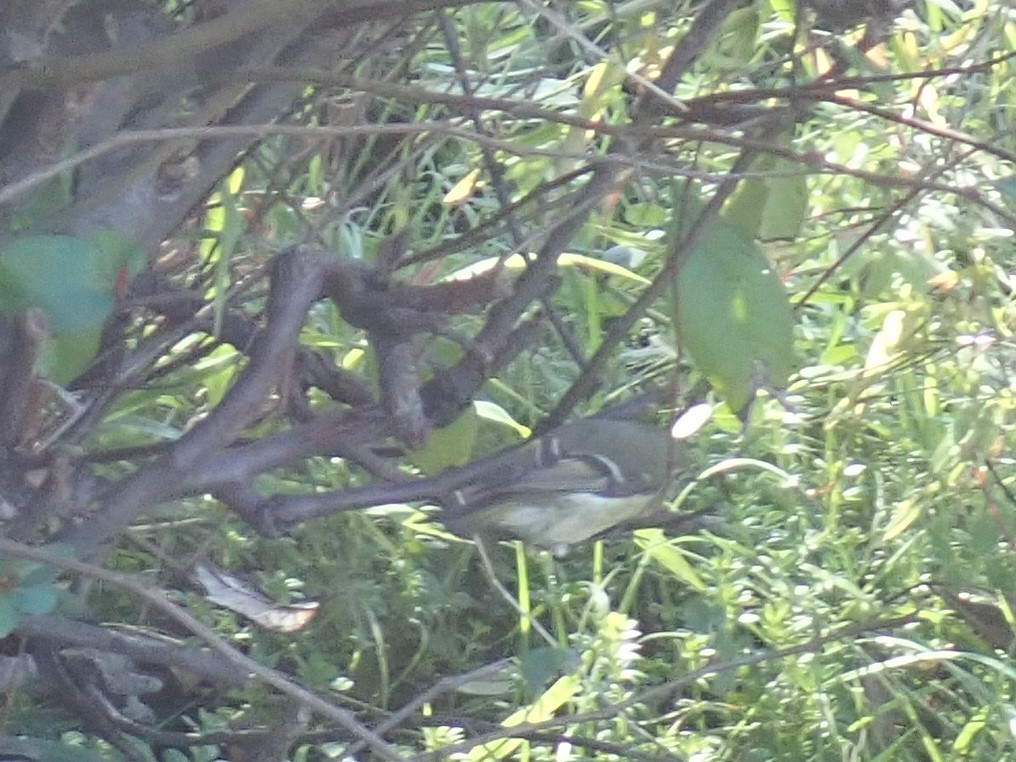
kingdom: Animalia
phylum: Chordata
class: Aves
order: Passeriformes
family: Regulidae
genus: Regulus
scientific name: Regulus calendula
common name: Ruby-crowned kinglet
